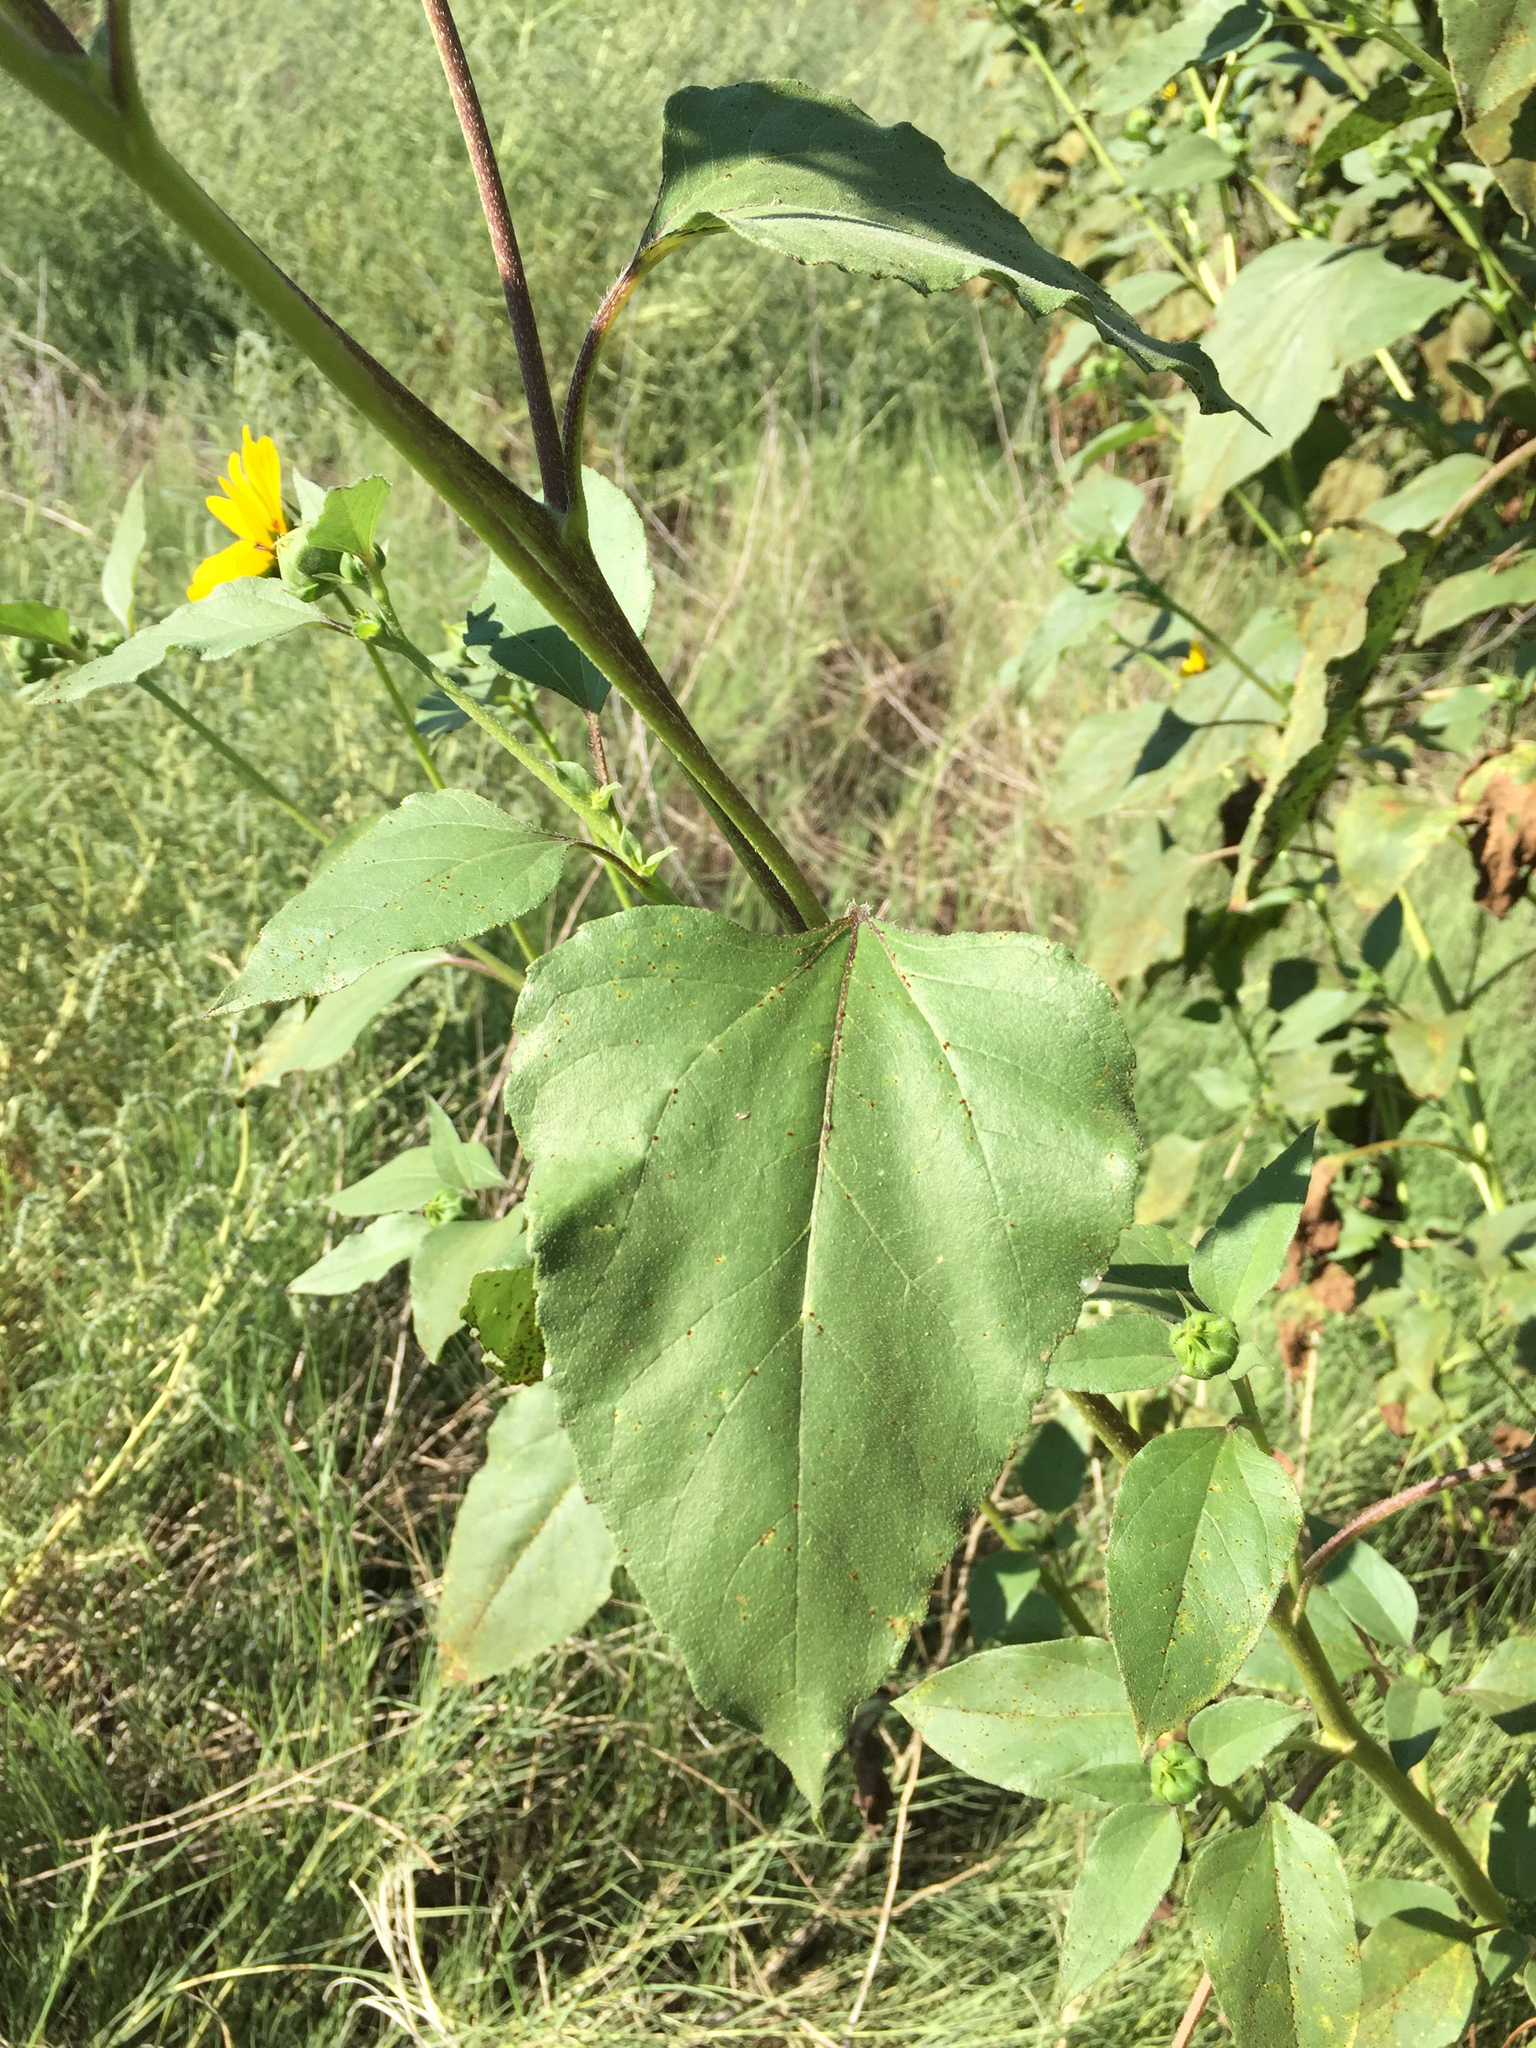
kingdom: Plantae
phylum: Tracheophyta
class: Magnoliopsida
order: Asterales
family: Asteraceae
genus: Helianthus
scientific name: Helianthus annuus
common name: Sunflower
